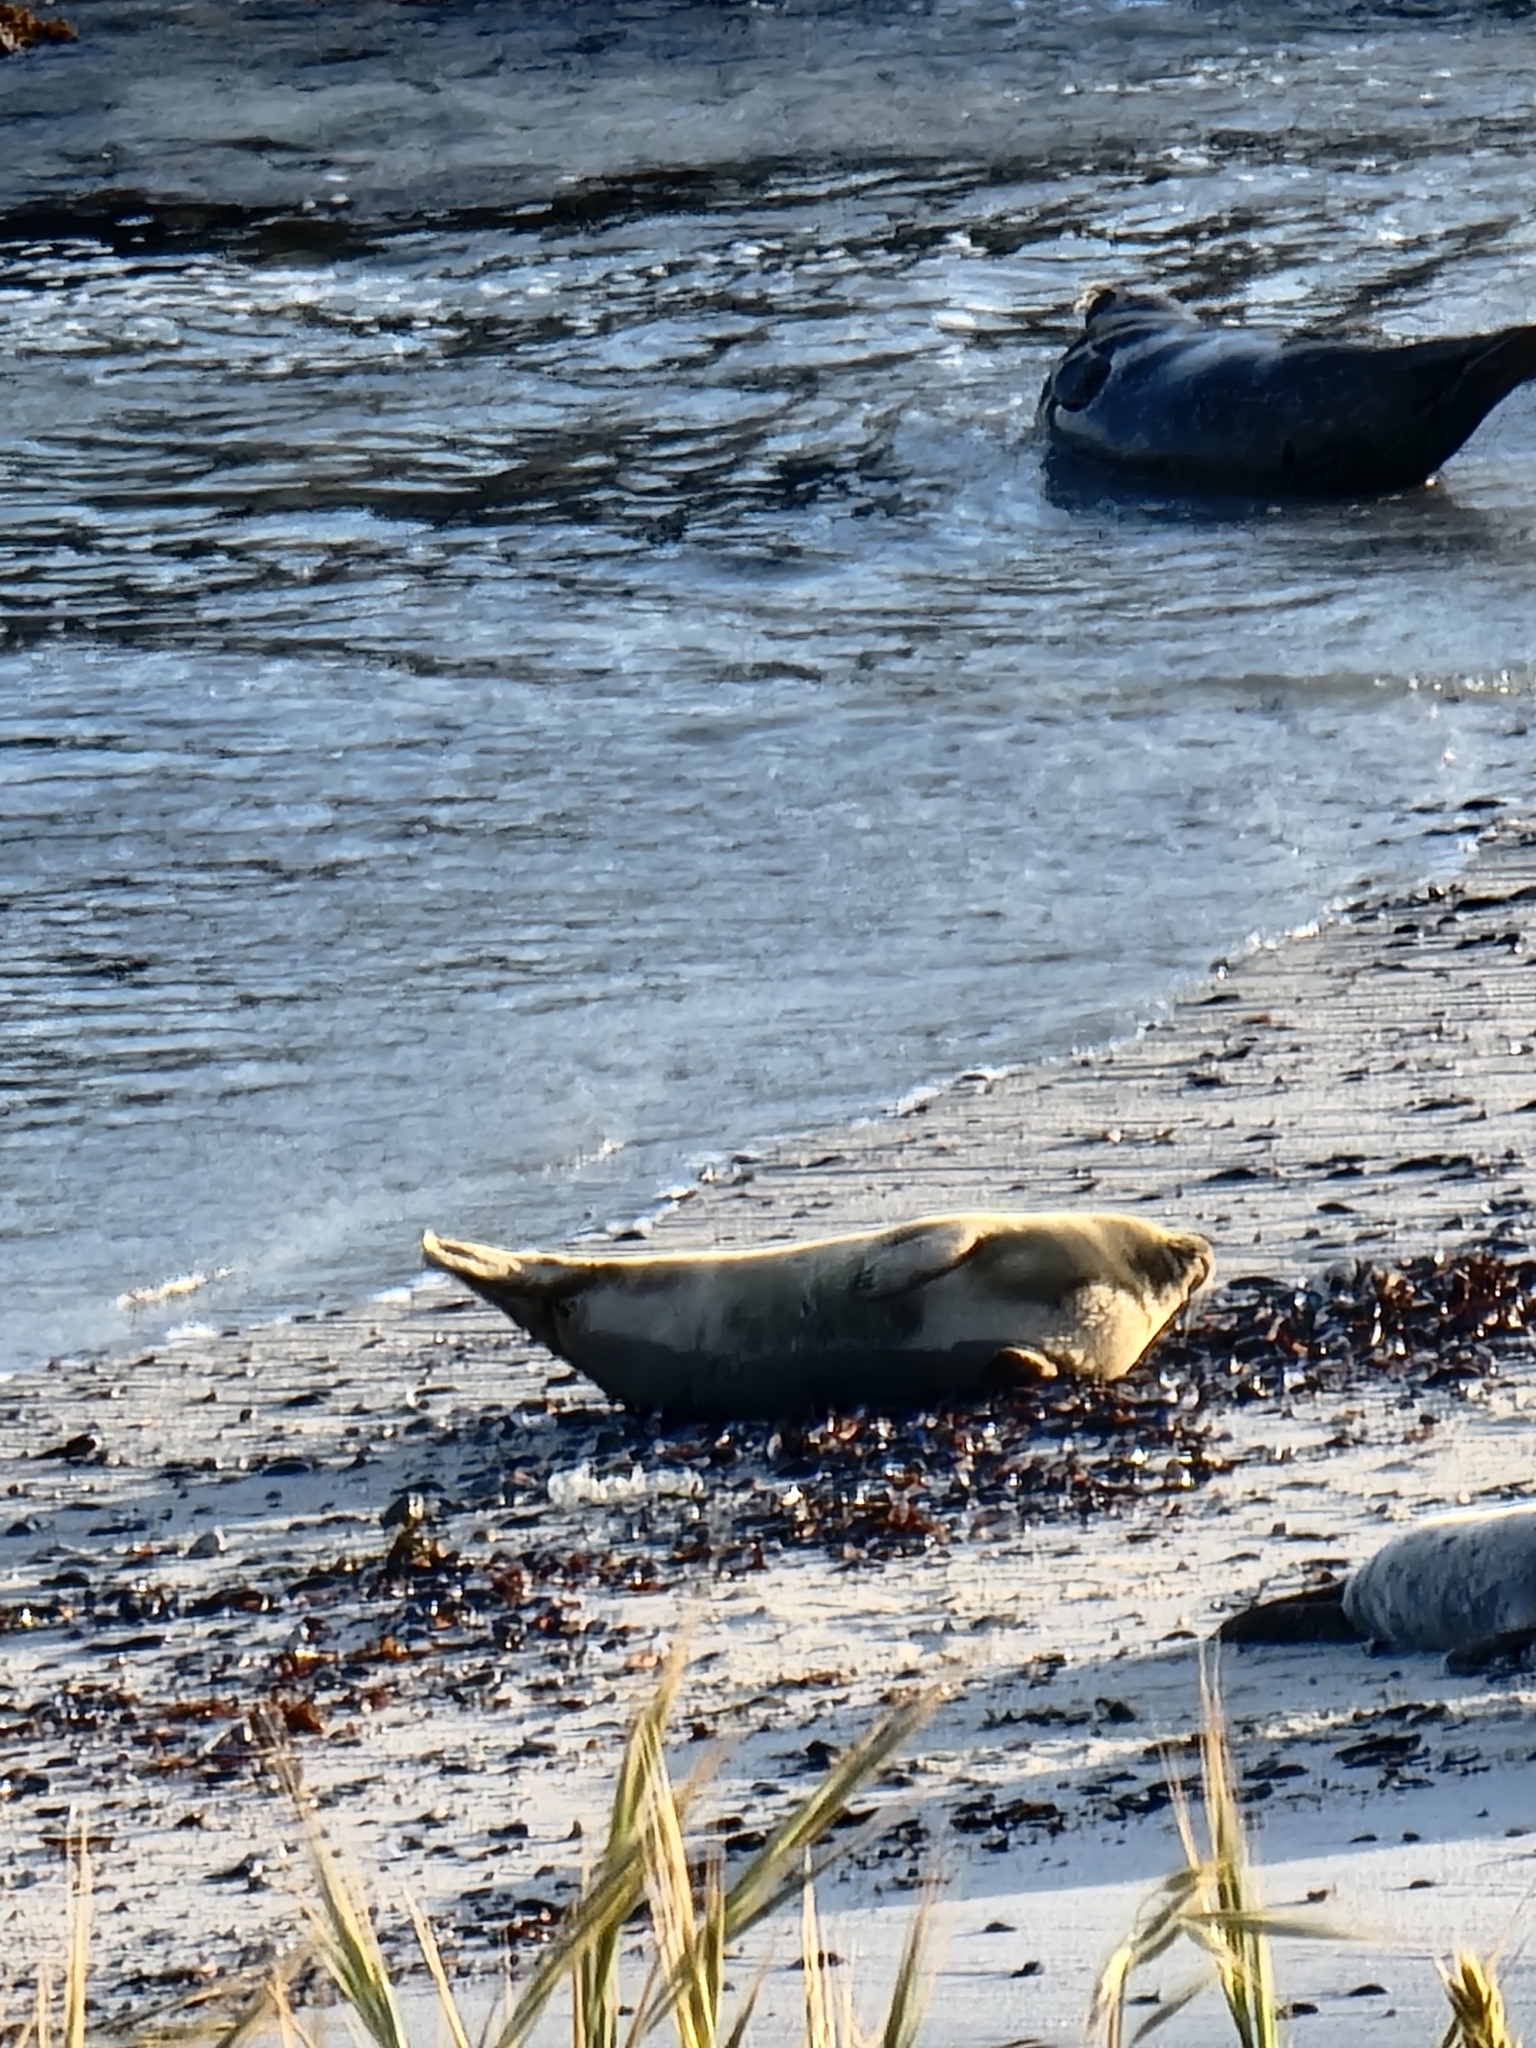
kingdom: Animalia
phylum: Chordata
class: Mammalia
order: Carnivora
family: Phocidae
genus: Phoca
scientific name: Phoca vitulina
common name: Harbor seal
